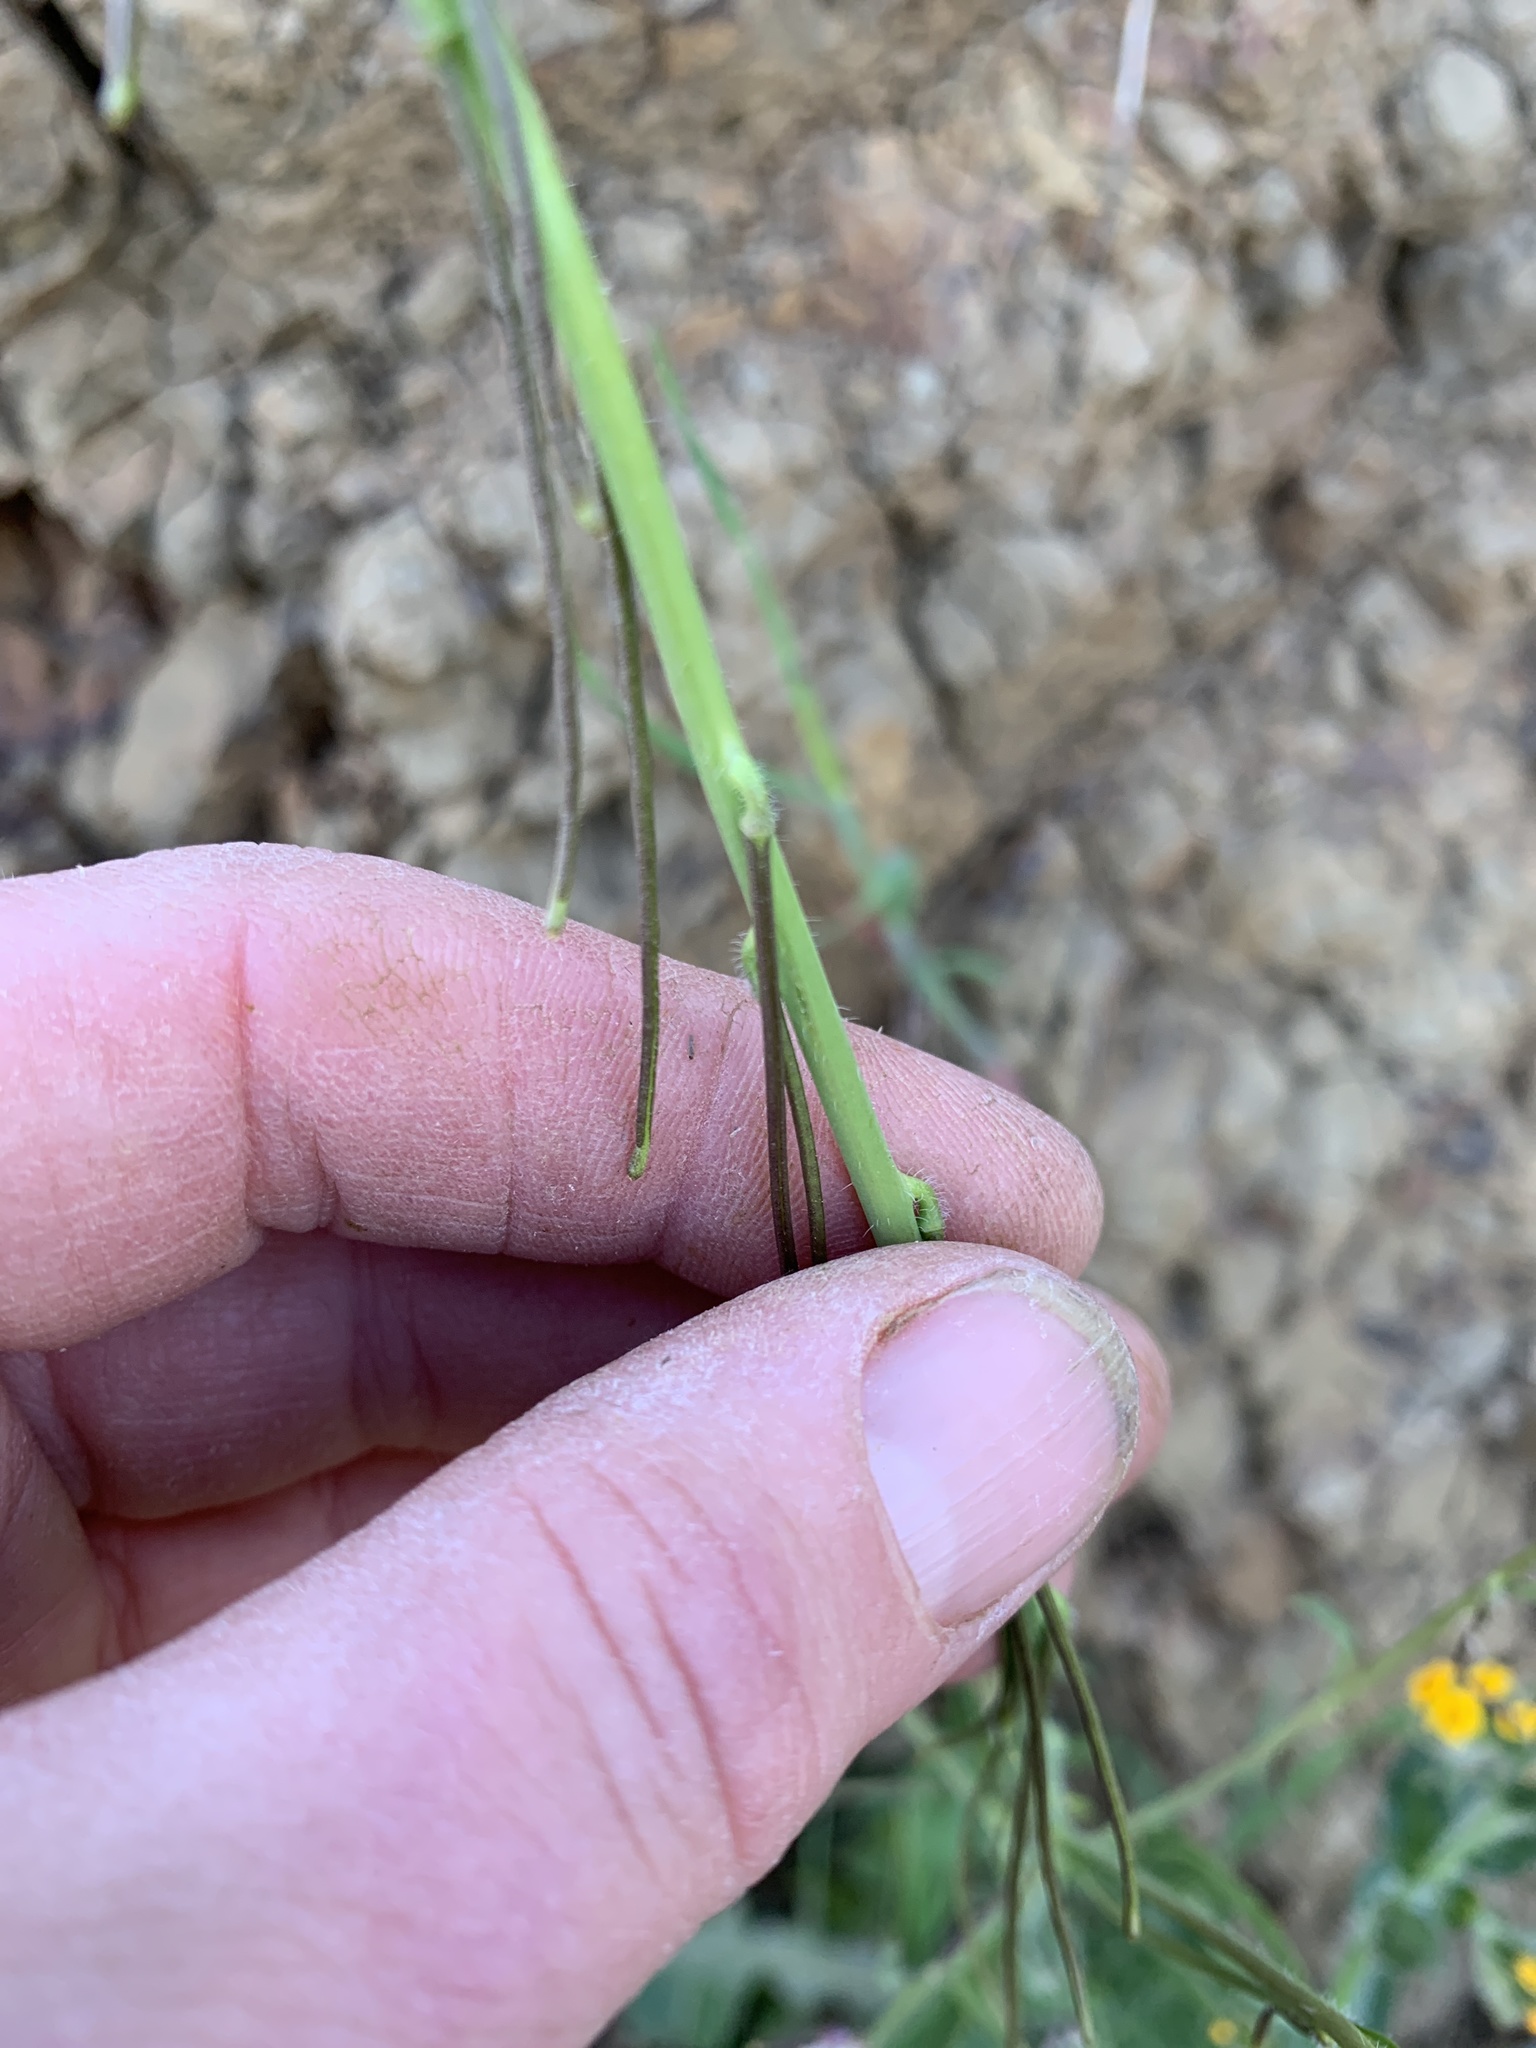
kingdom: Plantae
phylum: Tracheophyta
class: Magnoliopsida
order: Brassicales
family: Brassicaceae
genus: Streptanthus
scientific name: Streptanthus lasiophyllus
